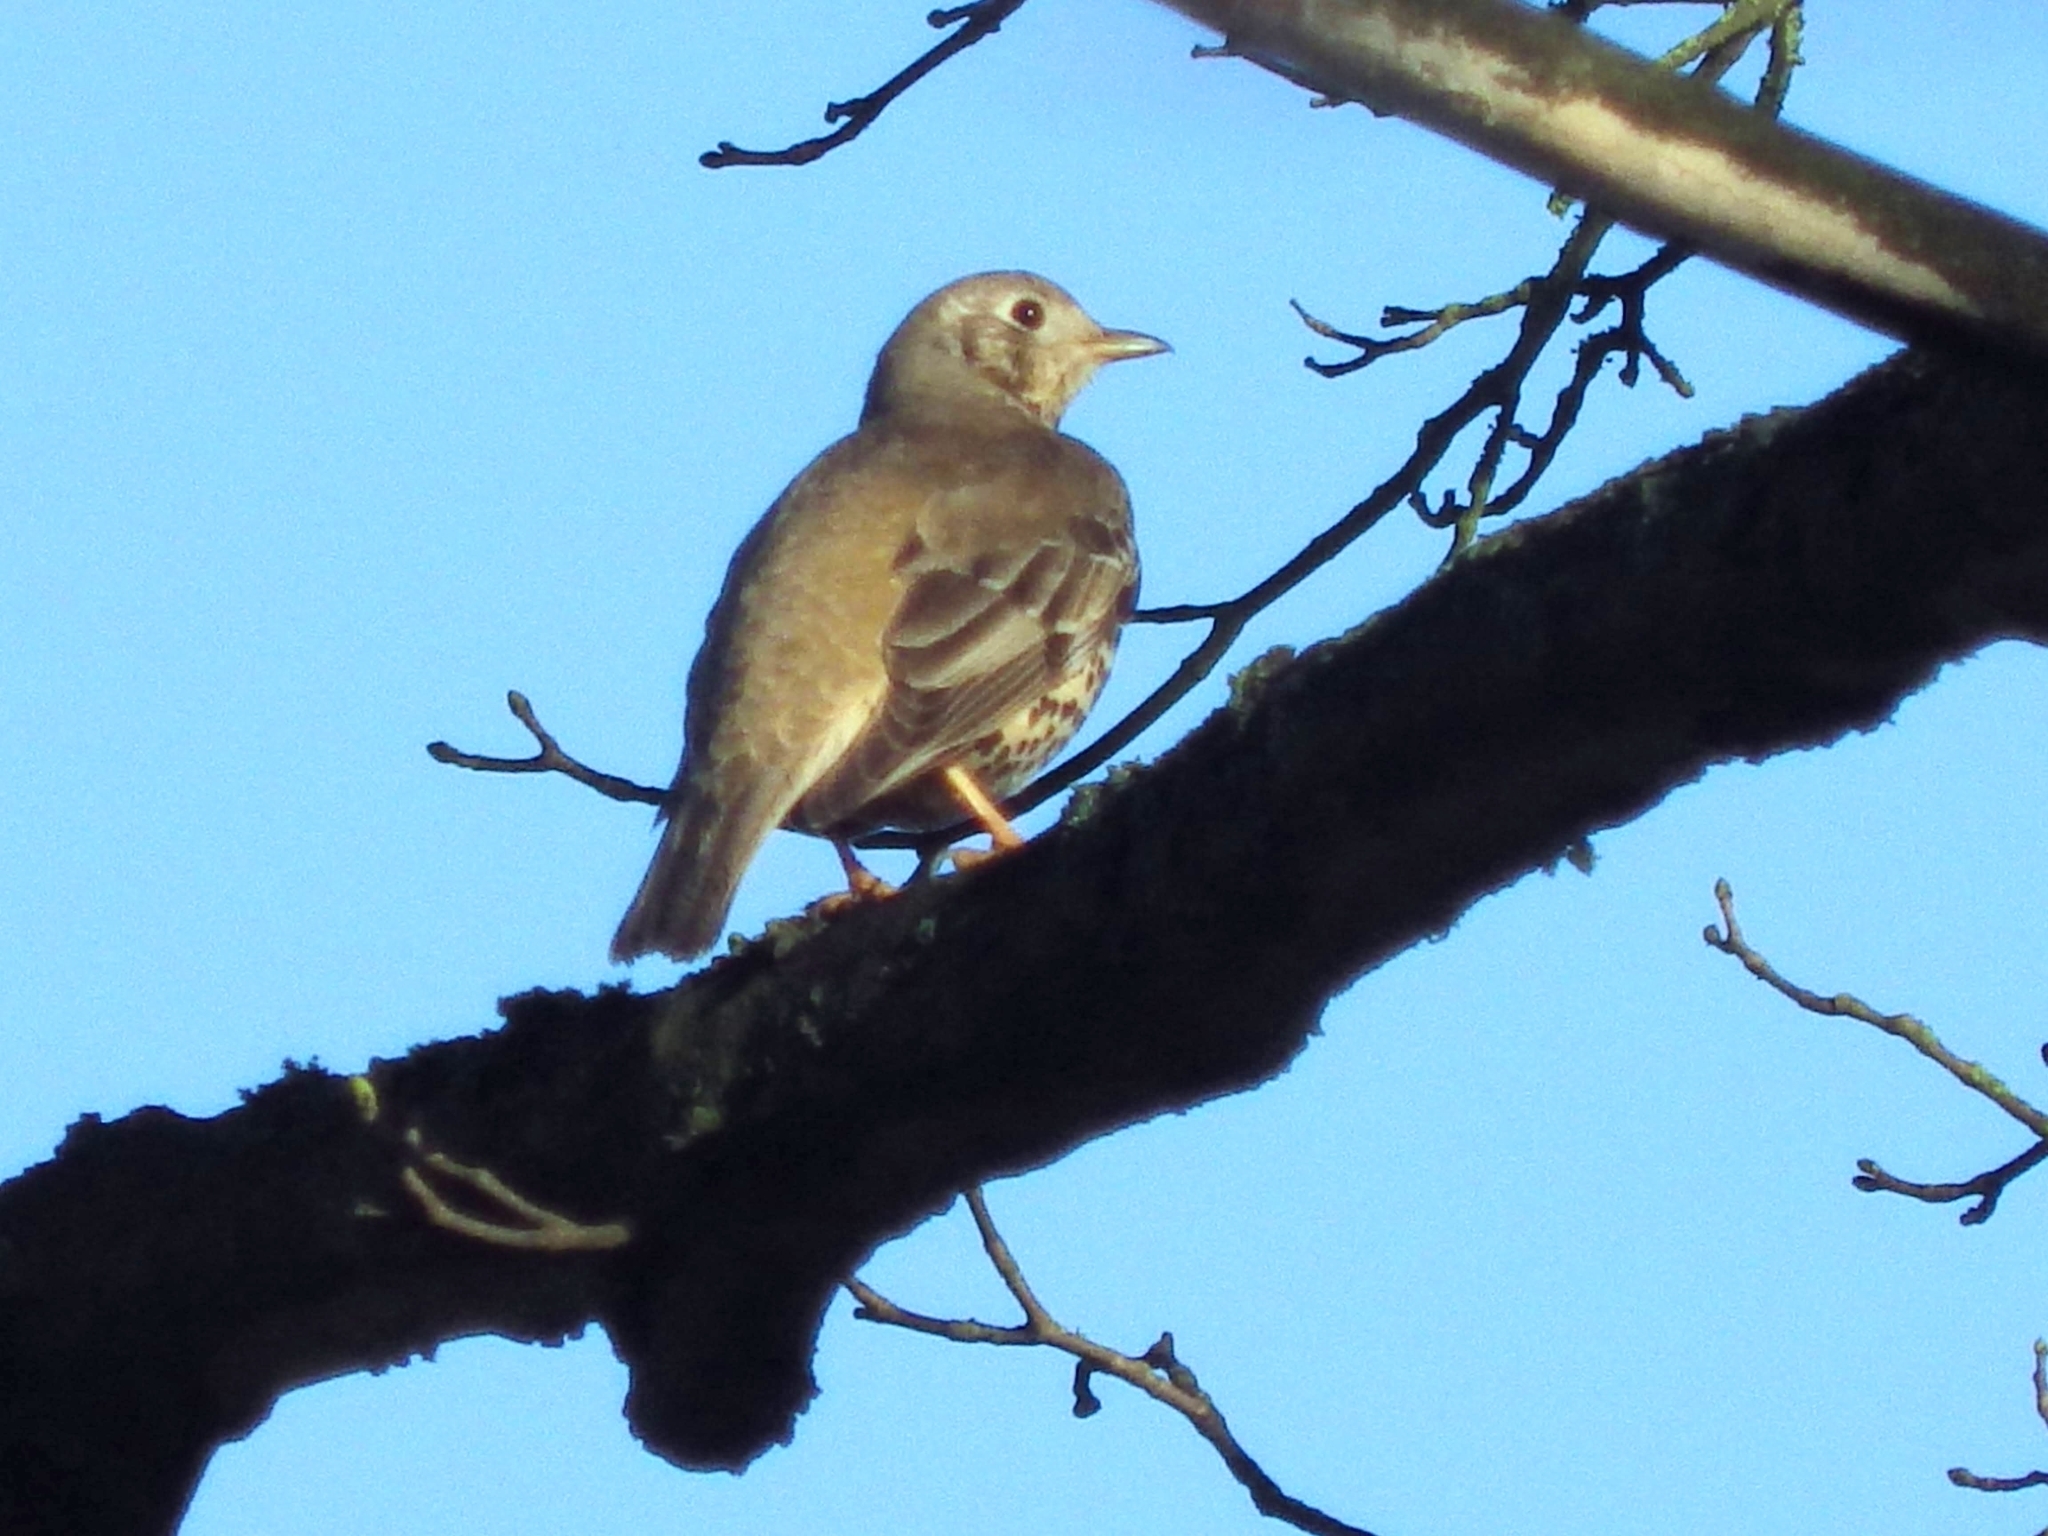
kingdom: Animalia
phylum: Chordata
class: Aves
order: Passeriformes
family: Turdidae
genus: Turdus
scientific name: Turdus viscivorus
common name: Mistle thrush
